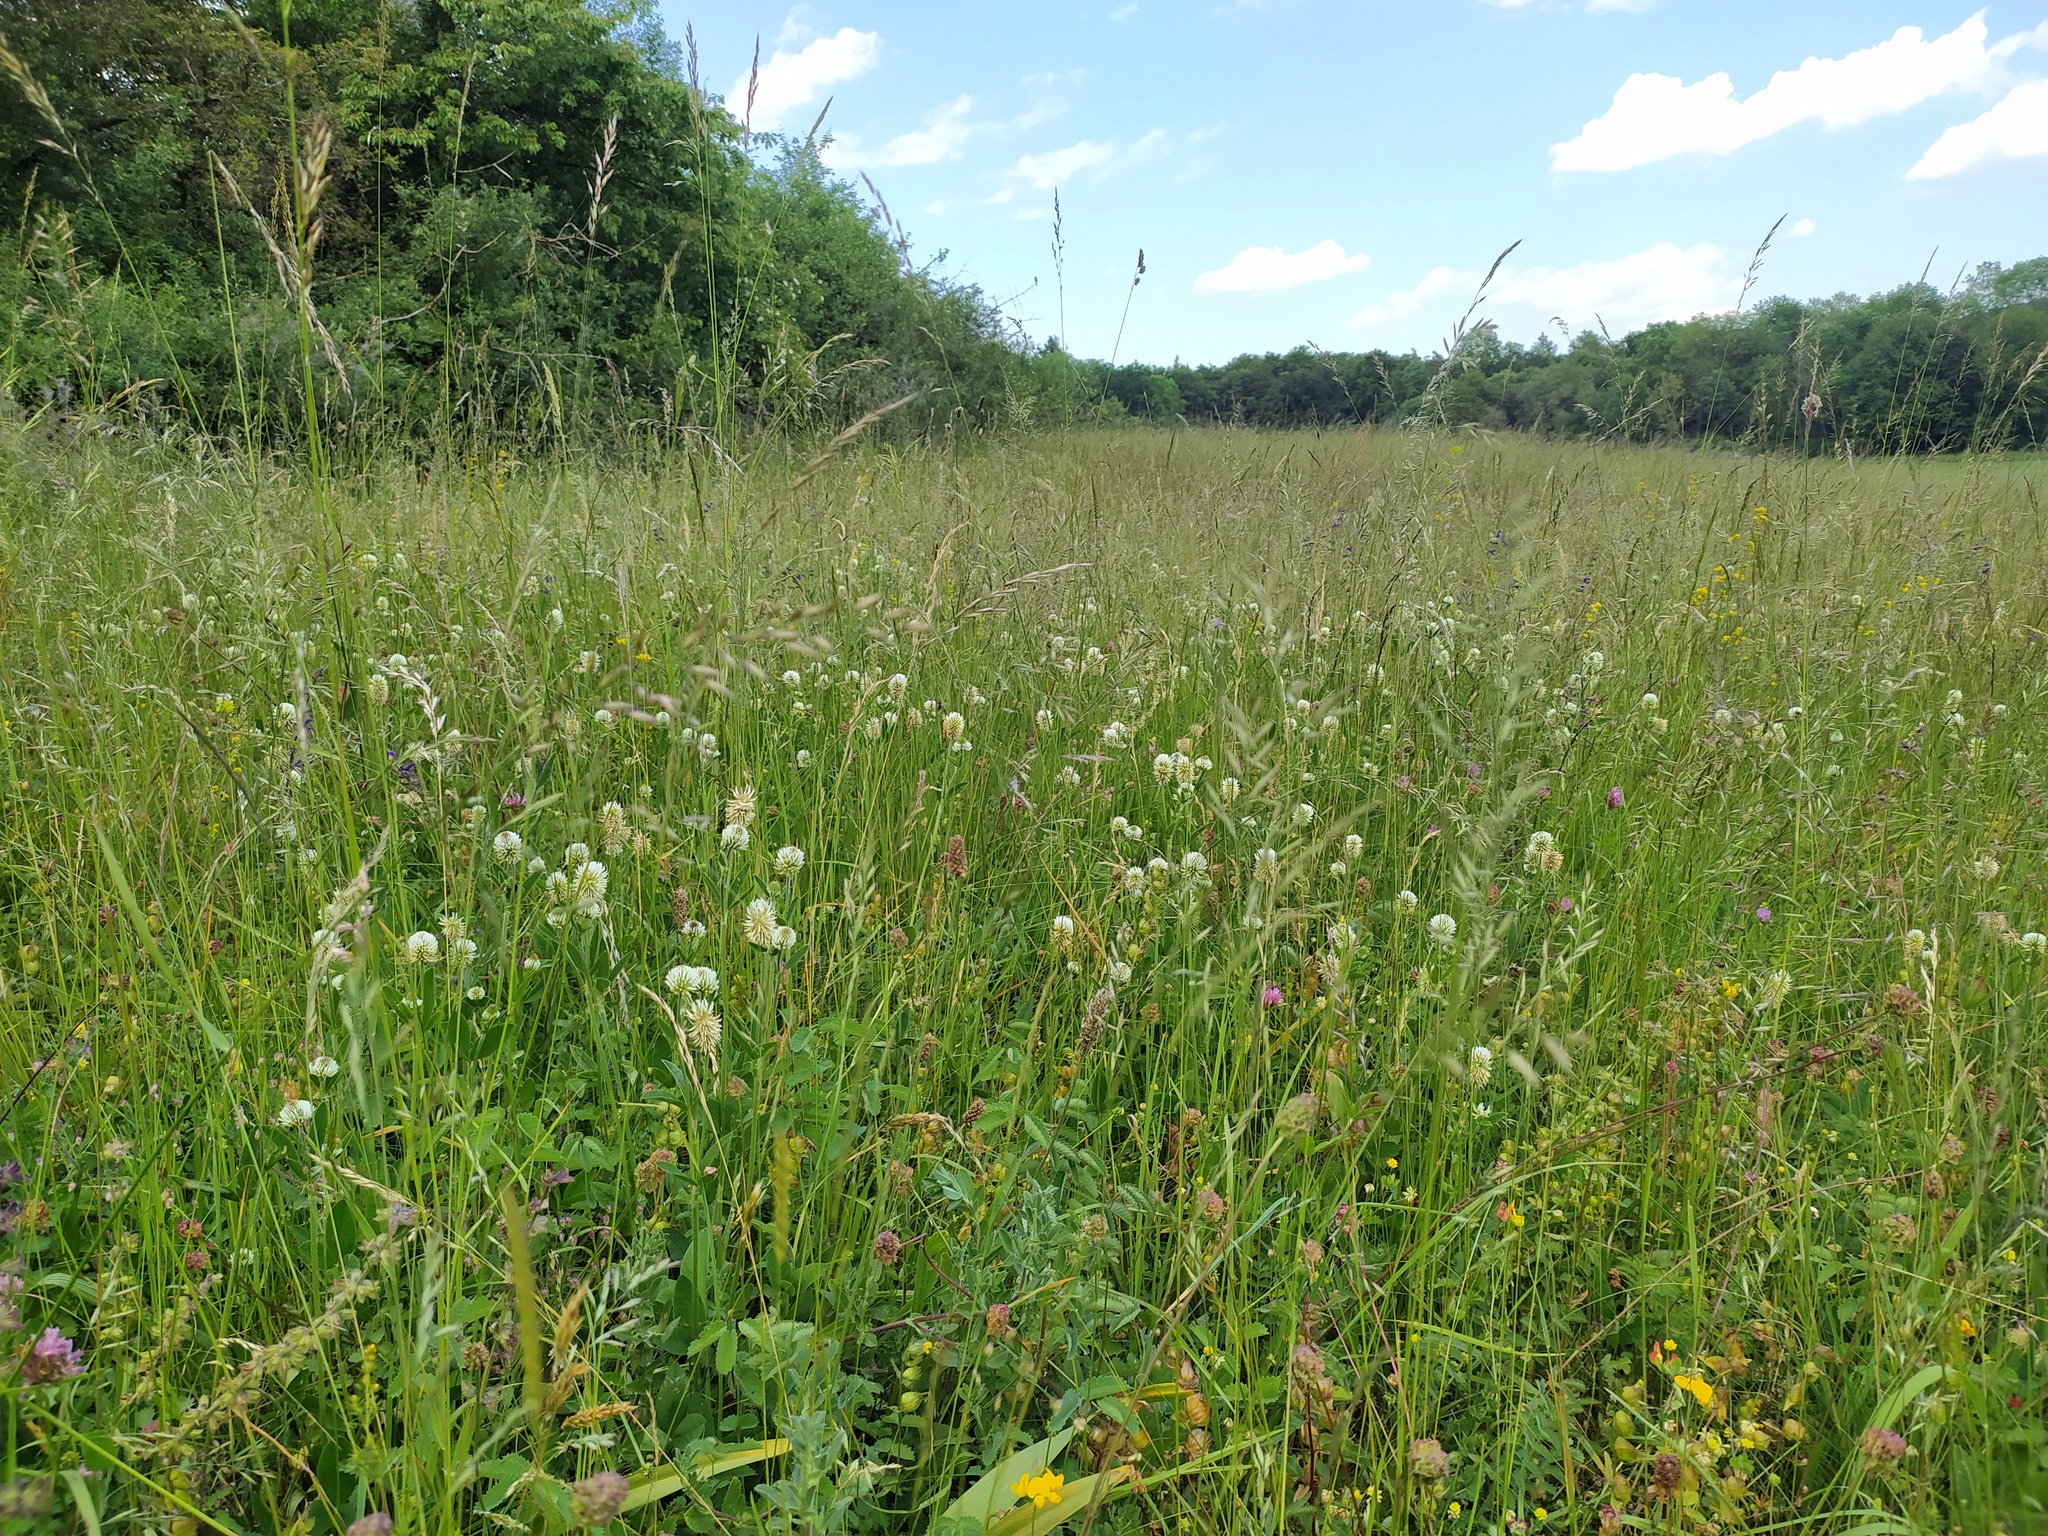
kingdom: Plantae
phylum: Tracheophyta
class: Magnoliopsida
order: Fabales
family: Fabaceae
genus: Trifolium
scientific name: Trifolium montanum
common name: Mountain clover
